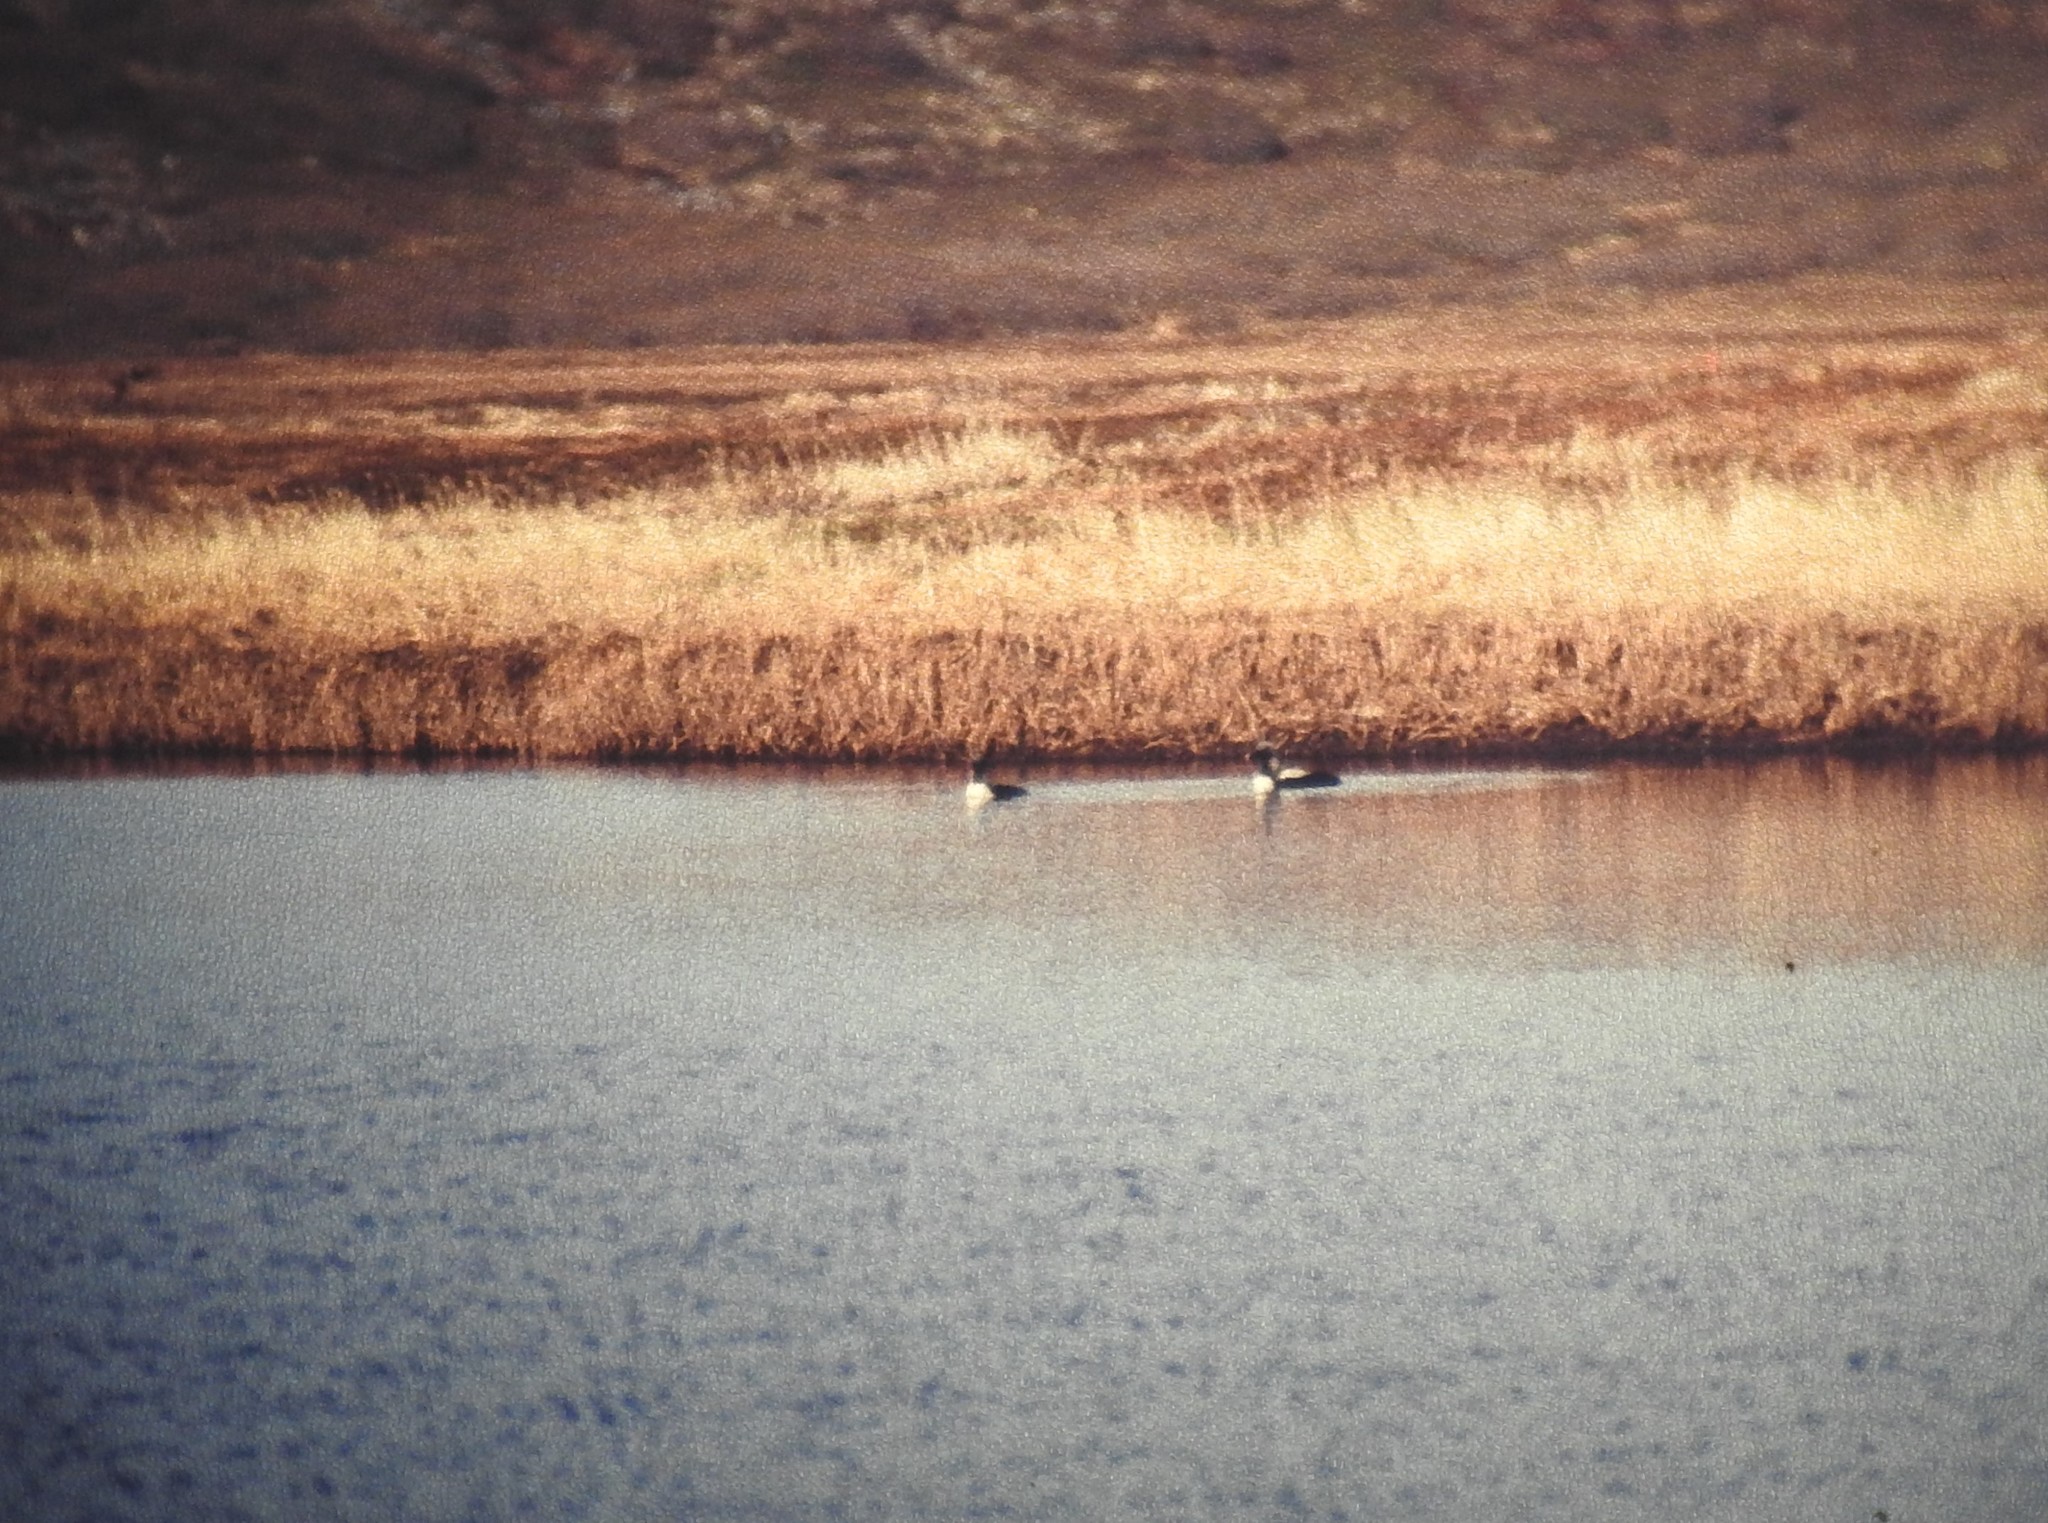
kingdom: Animalia
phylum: Chordata
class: Aves
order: Gaviiformes
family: Gaviidae
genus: Gavia
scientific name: Gavia pacifica
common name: Pacific loon
